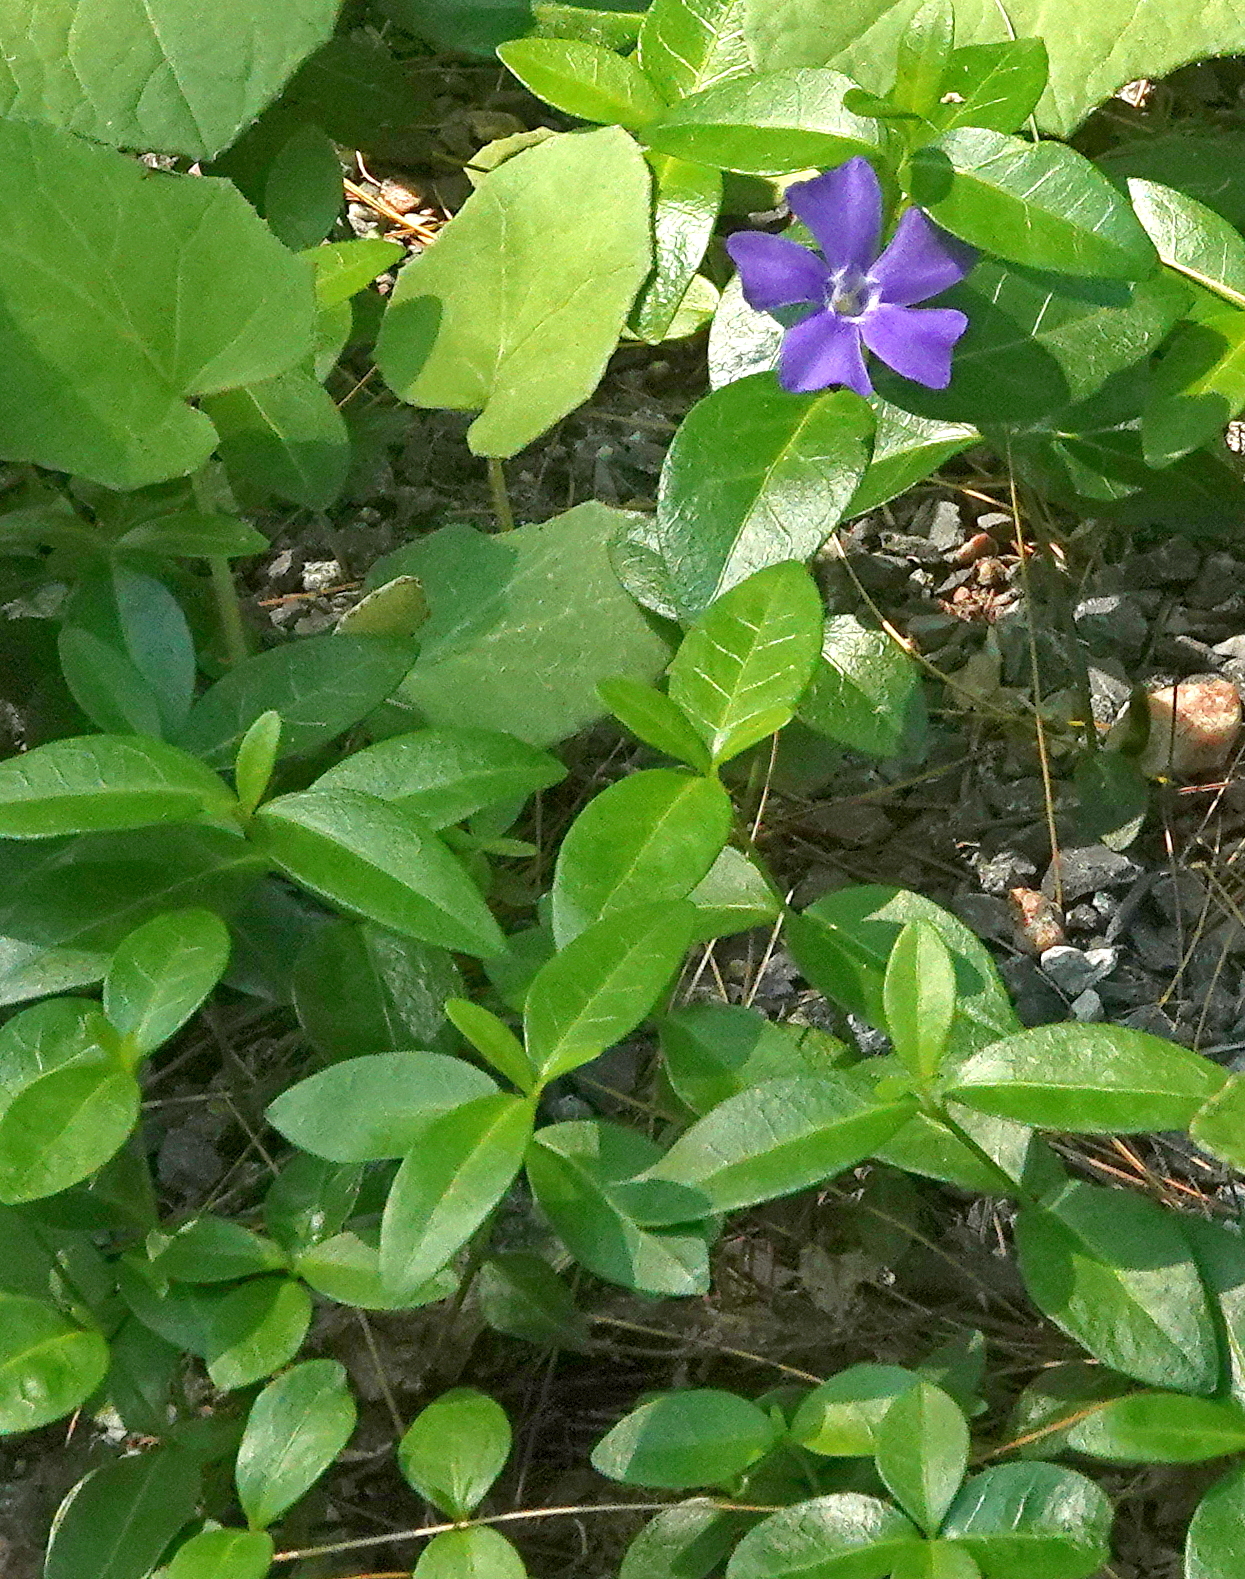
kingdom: Plantae
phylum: Tracheophyta
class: Magnoliopsida
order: Gentianales
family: Apocynaceae
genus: Vinca
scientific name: Vinca minor
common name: Lesser periwinkle
